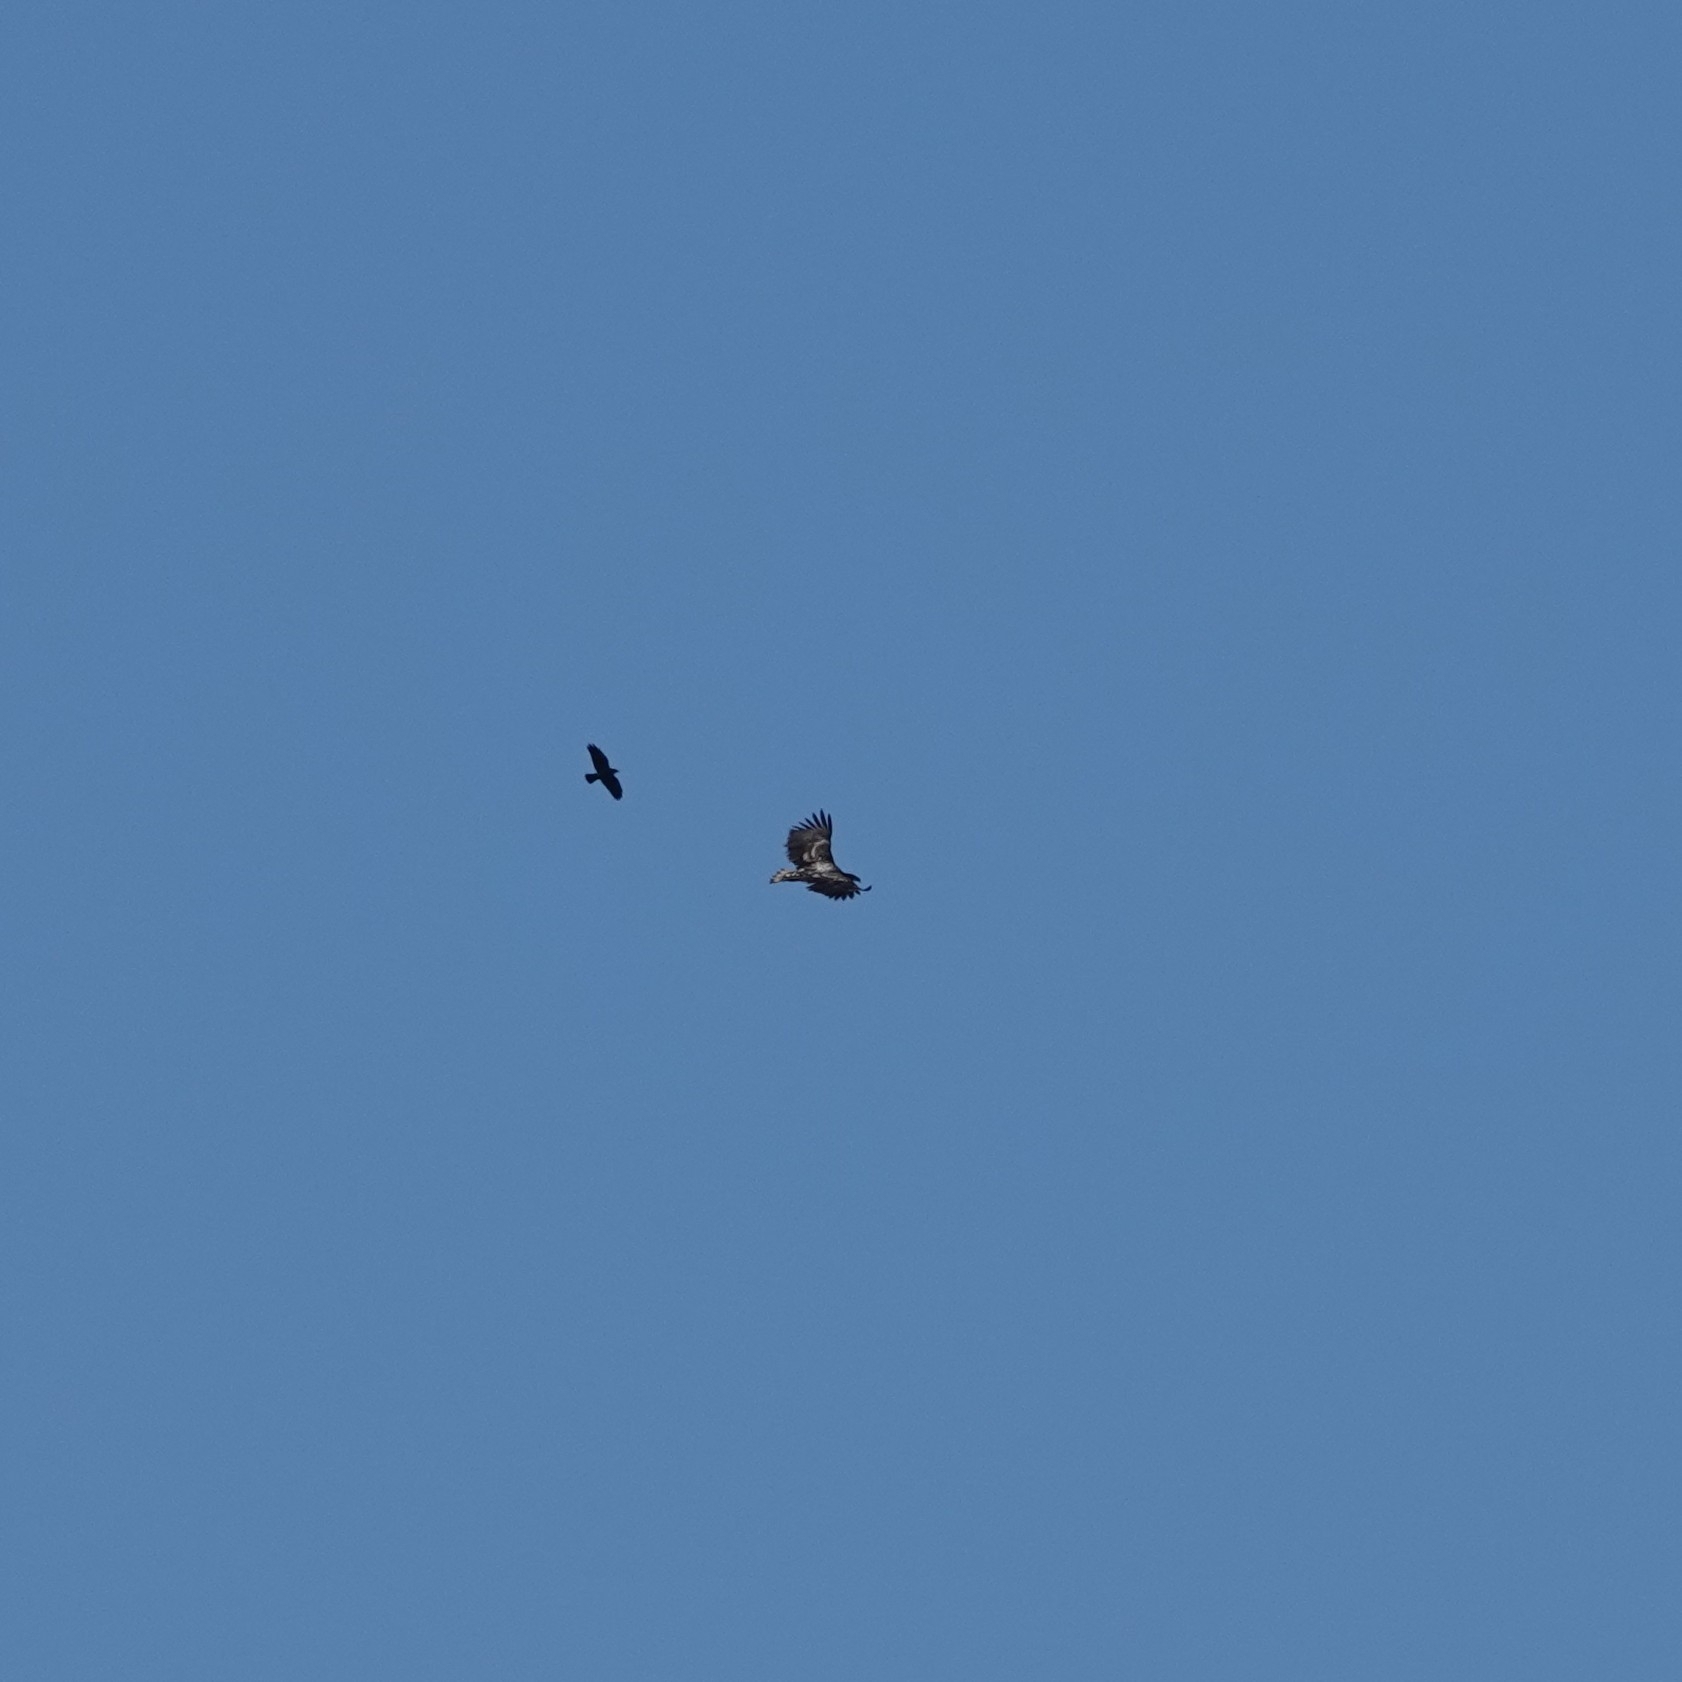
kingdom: Animalia
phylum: Chordata
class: Aves
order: Accipitriformes
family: Accipitridae
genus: Haliaeetus
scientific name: Haliaeetus albicilla
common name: White-tailed eagle
